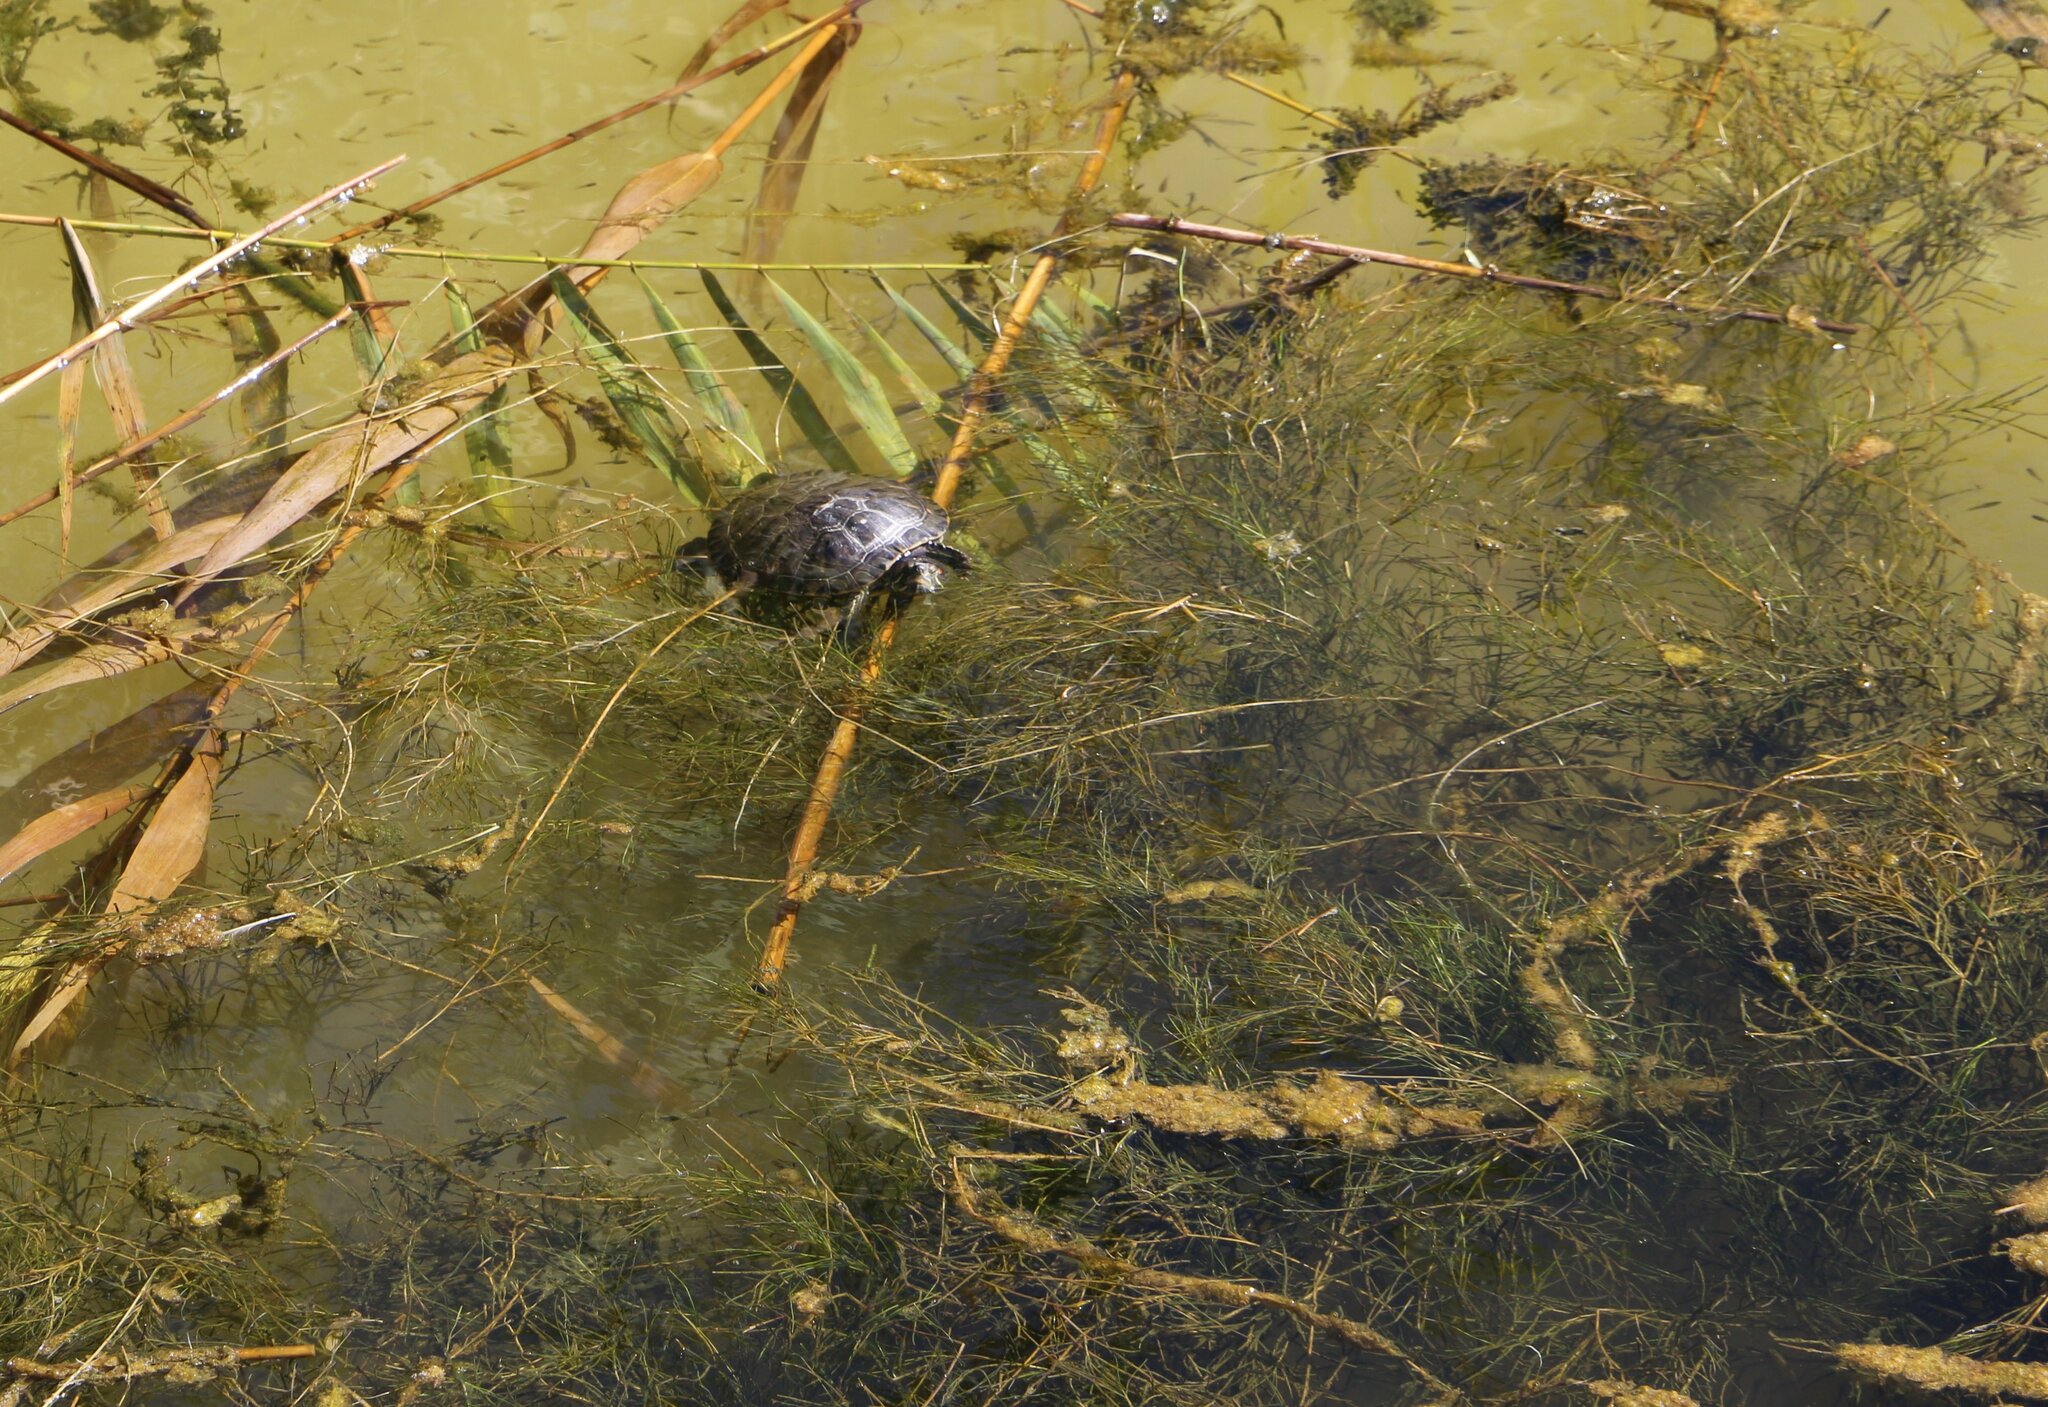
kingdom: Plantae
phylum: Tracheophyta
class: Liliopsida
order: Alismatales
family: Potamogetonaceae
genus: Stuckenia
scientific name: Stuckenia pectinata
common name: Sago pondweed
